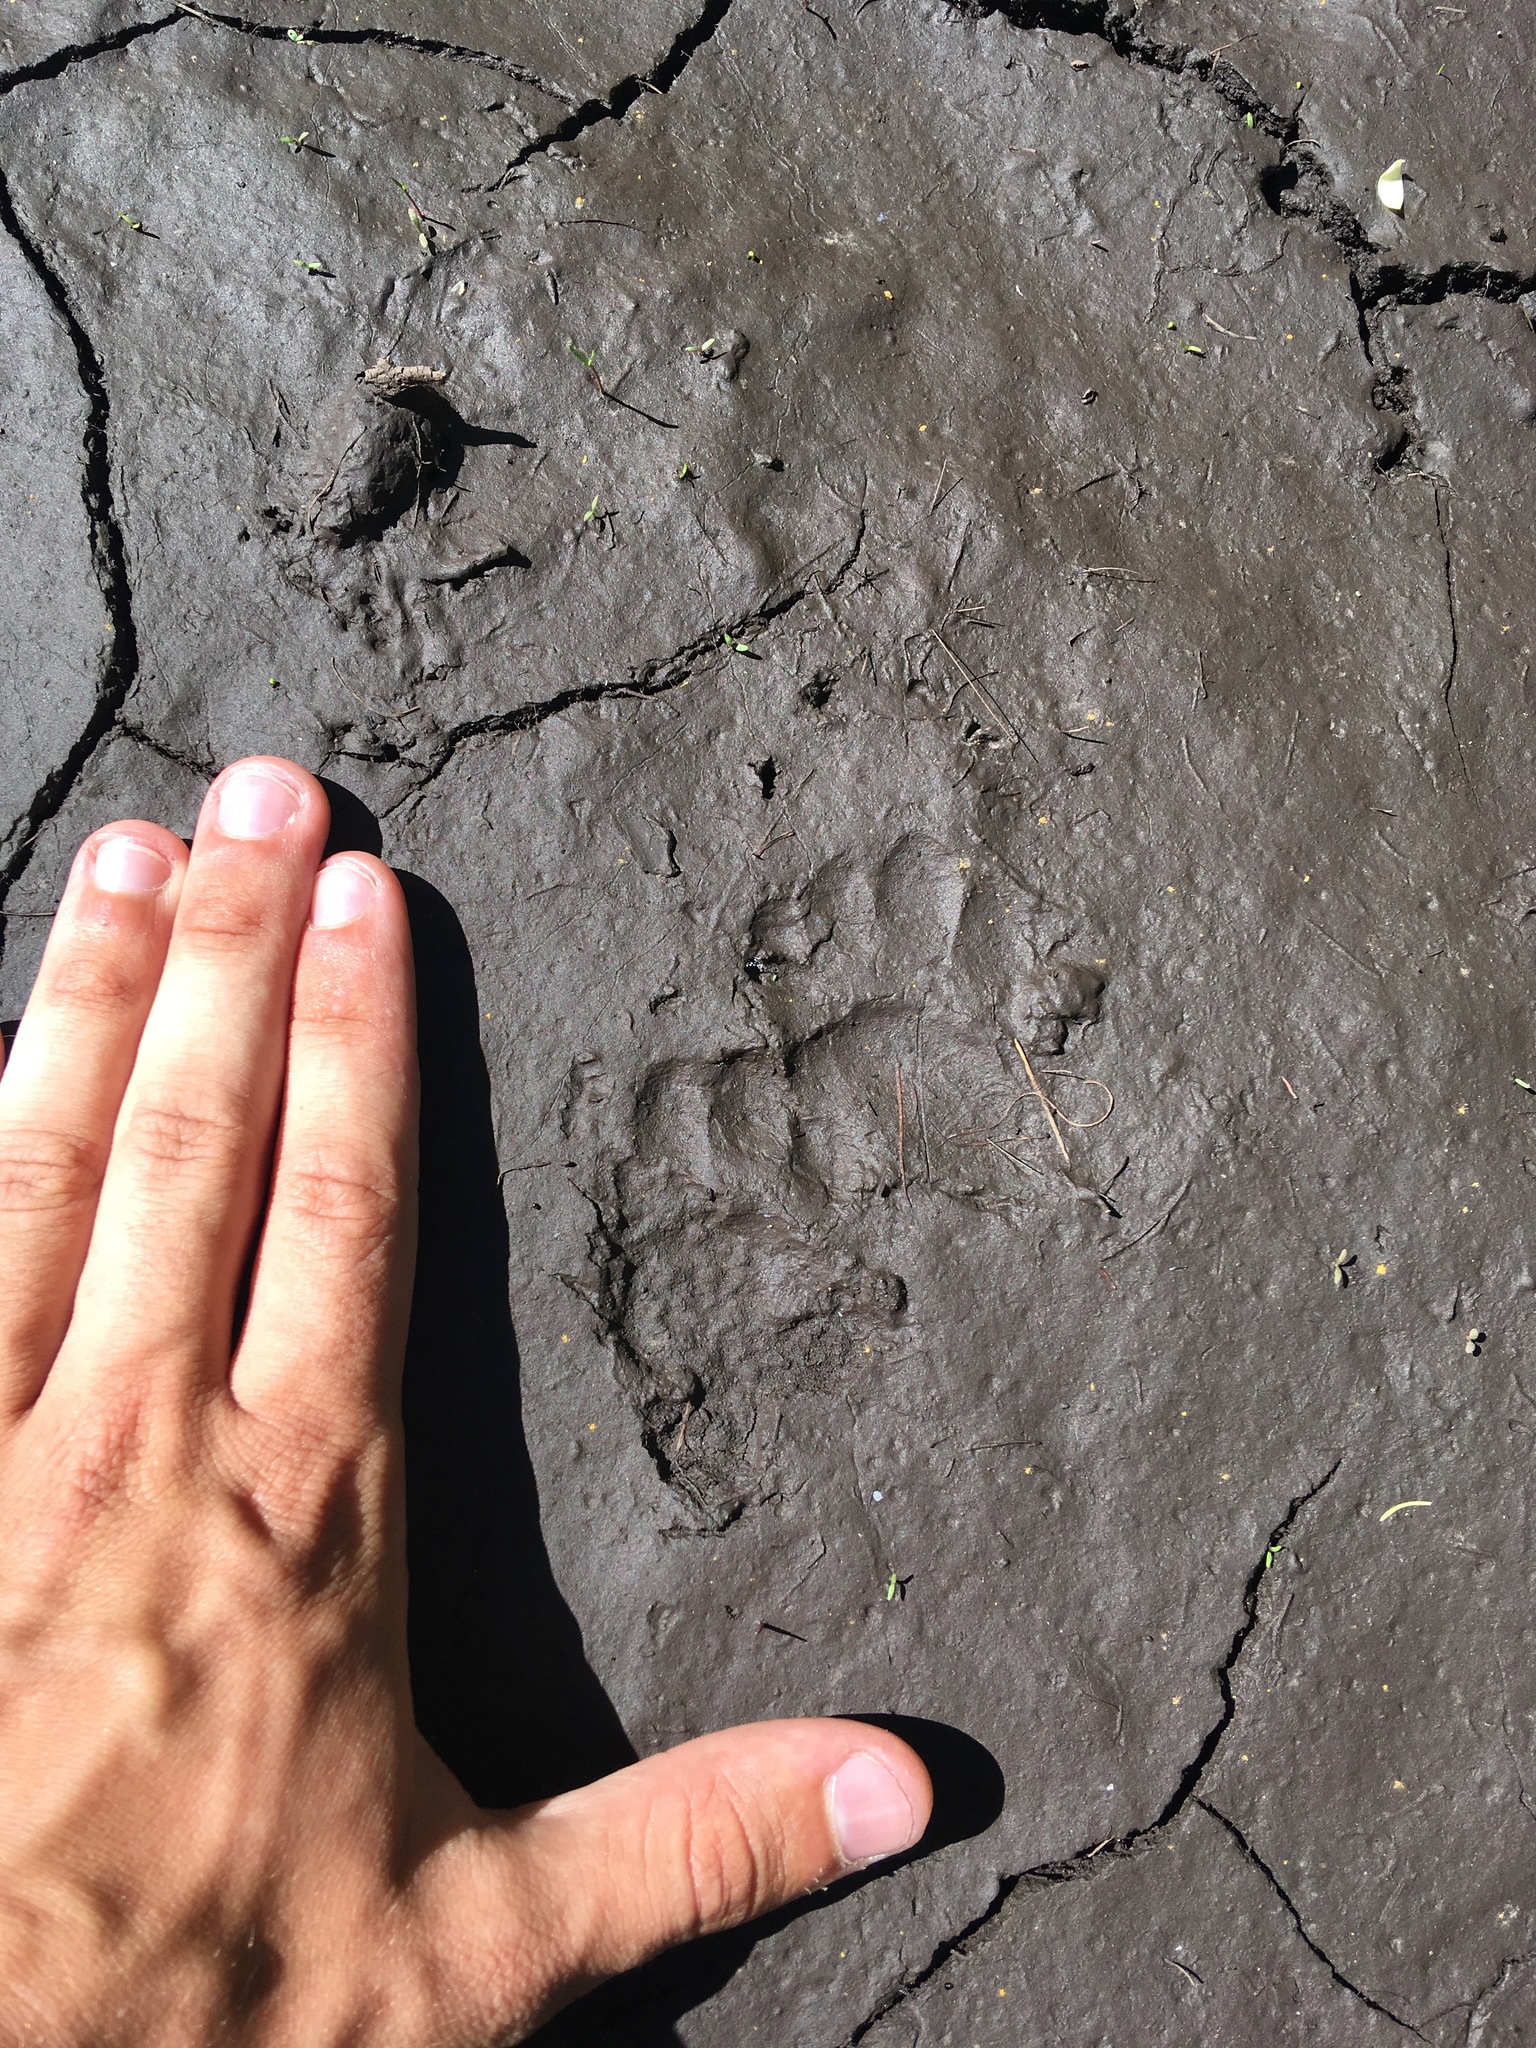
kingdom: Animalia
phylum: Chordata
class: Mammalia
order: Carnivora
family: Mustelidae
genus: Meles
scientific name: Meles leucurus
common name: Asian badger
